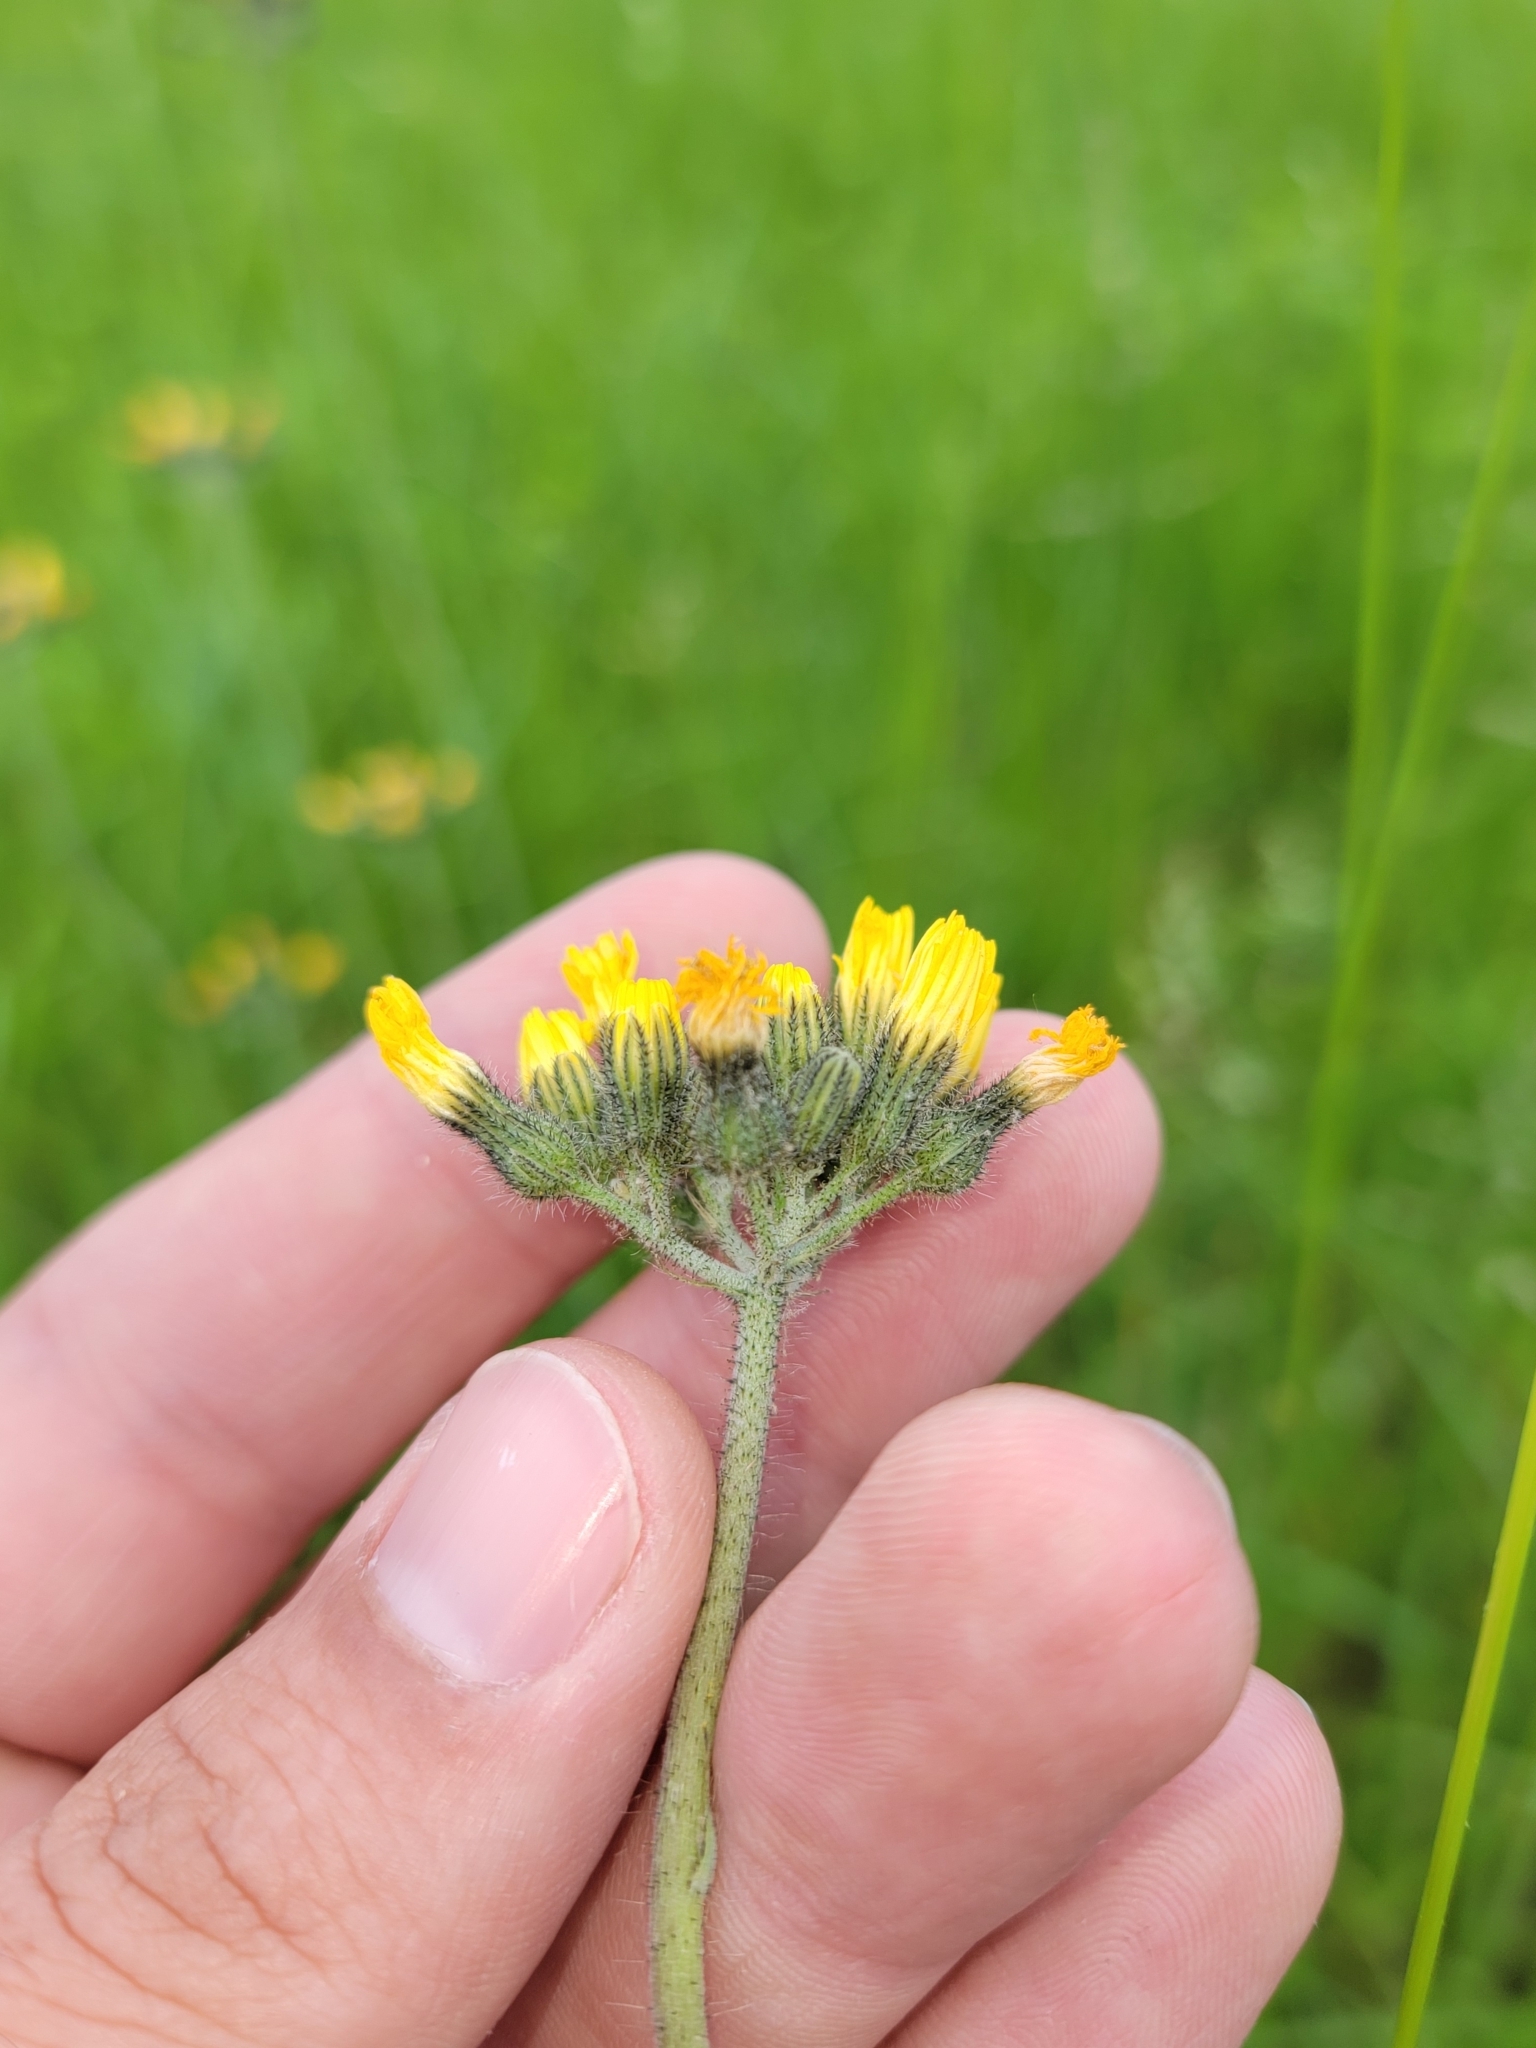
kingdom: Plantae
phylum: Tracheophyta
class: Magnoliopsida
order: Asterales
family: Asteraceae
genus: Pilosella
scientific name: Pilosella caespitosa
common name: Yellow fox-and-cubs
